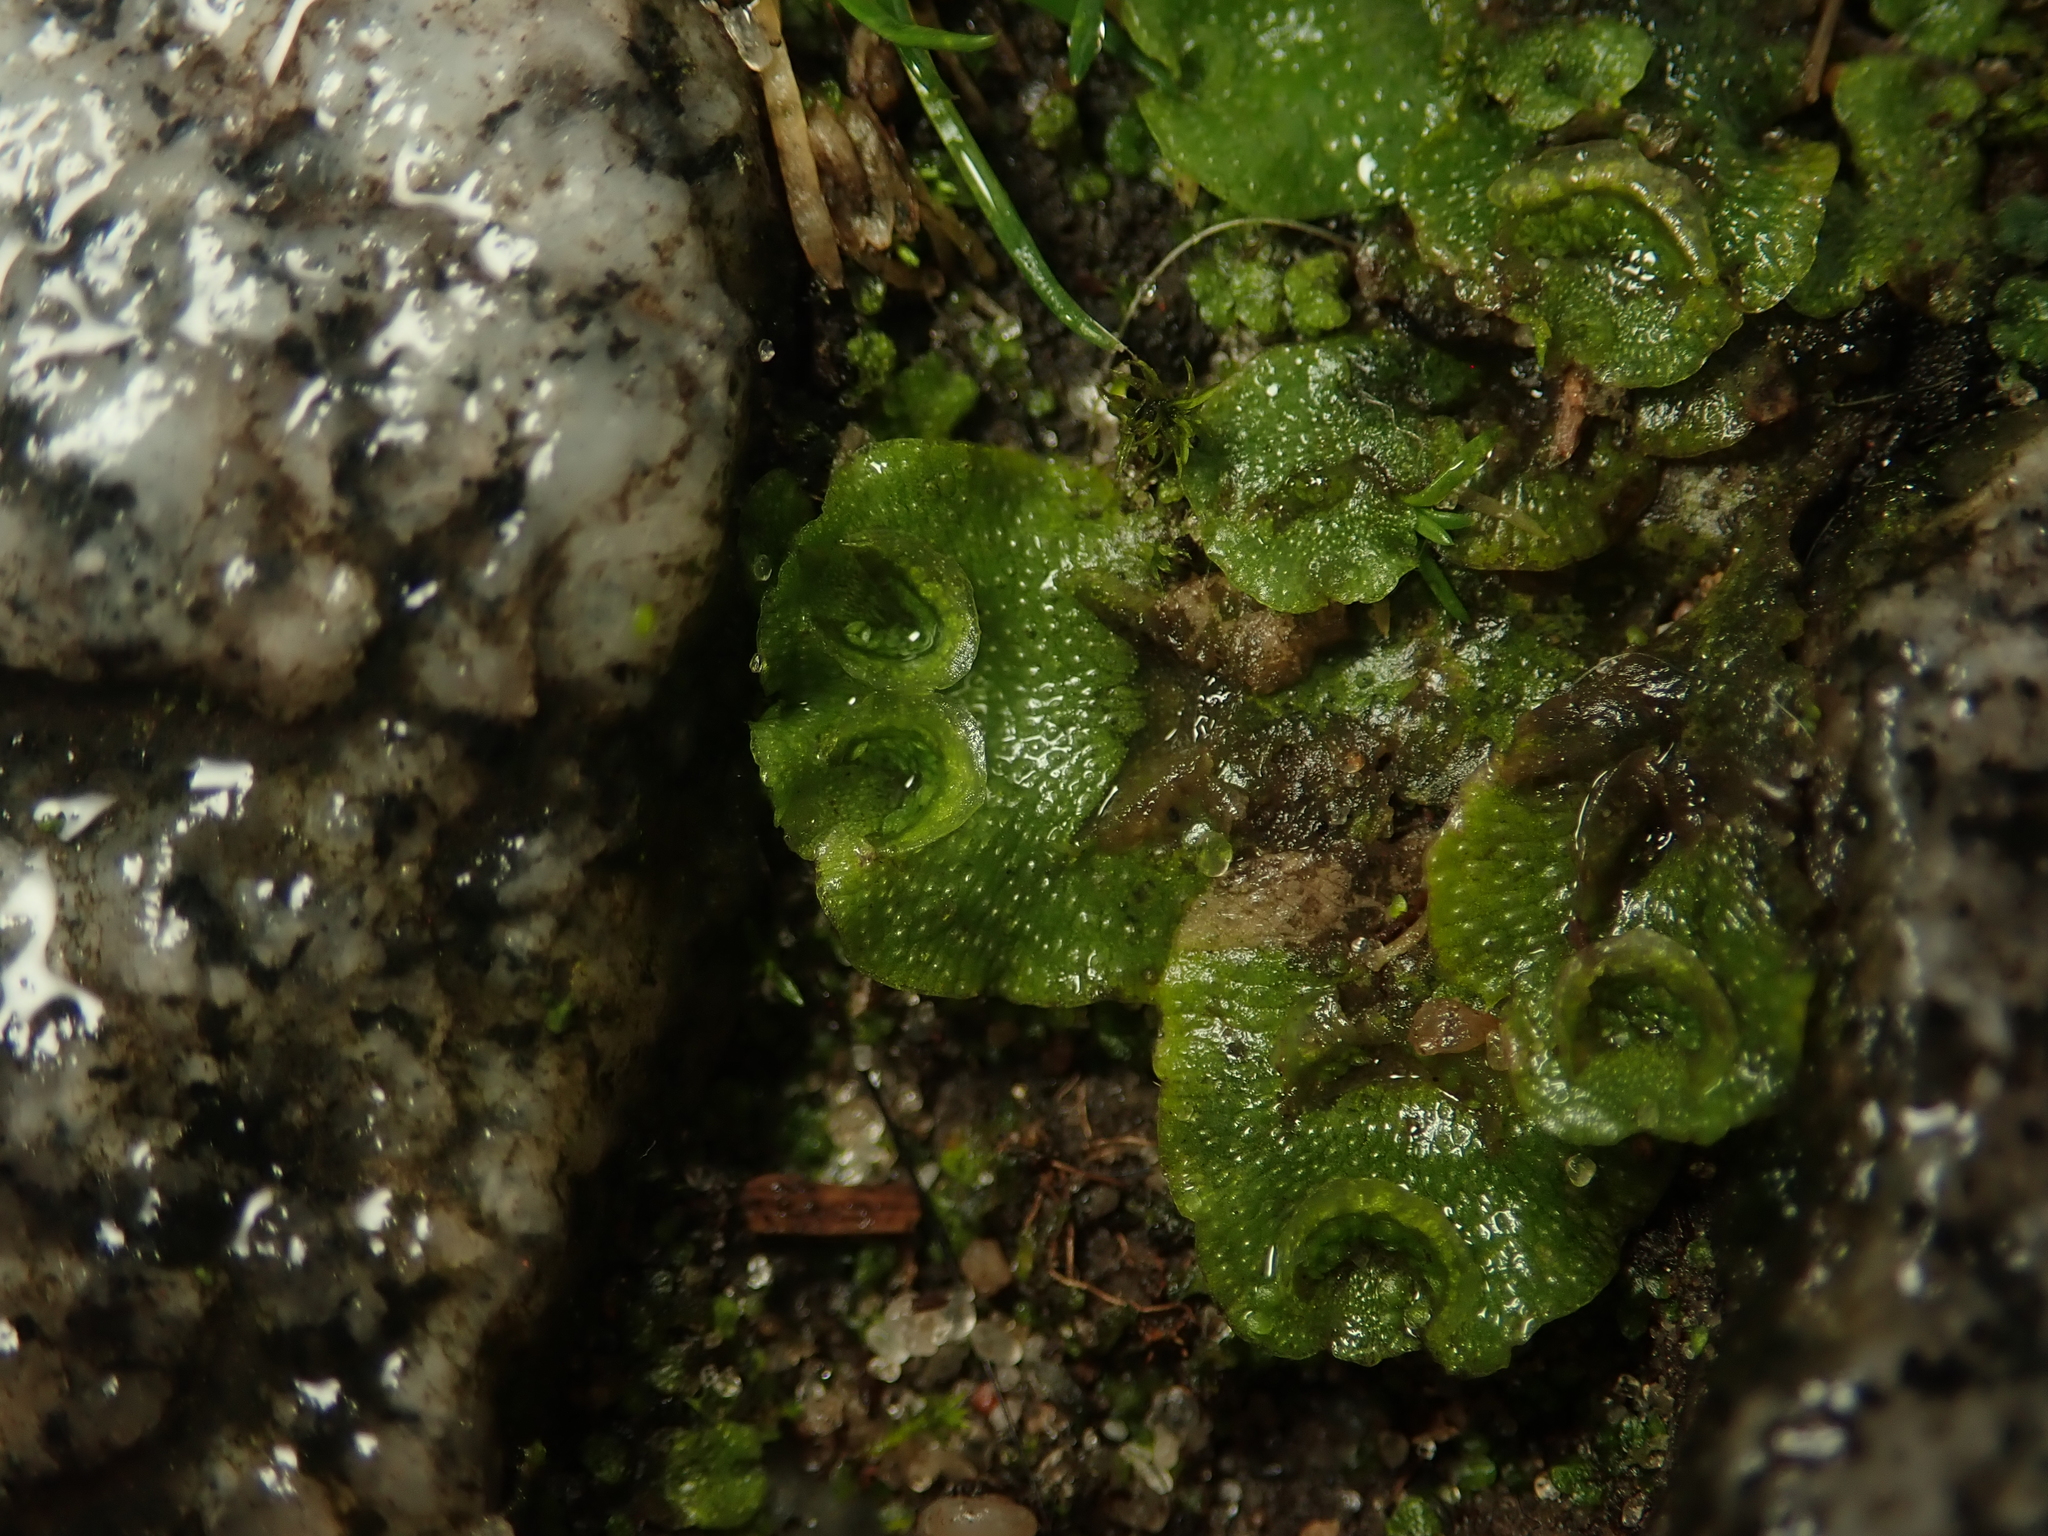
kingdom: Plantae
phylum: Marchantiophyta
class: Marchantiopsida
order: Lunulariales
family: Lunulariaceae
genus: Lunularia
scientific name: Lunularia cruciata
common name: Crescent-cup liverwort
